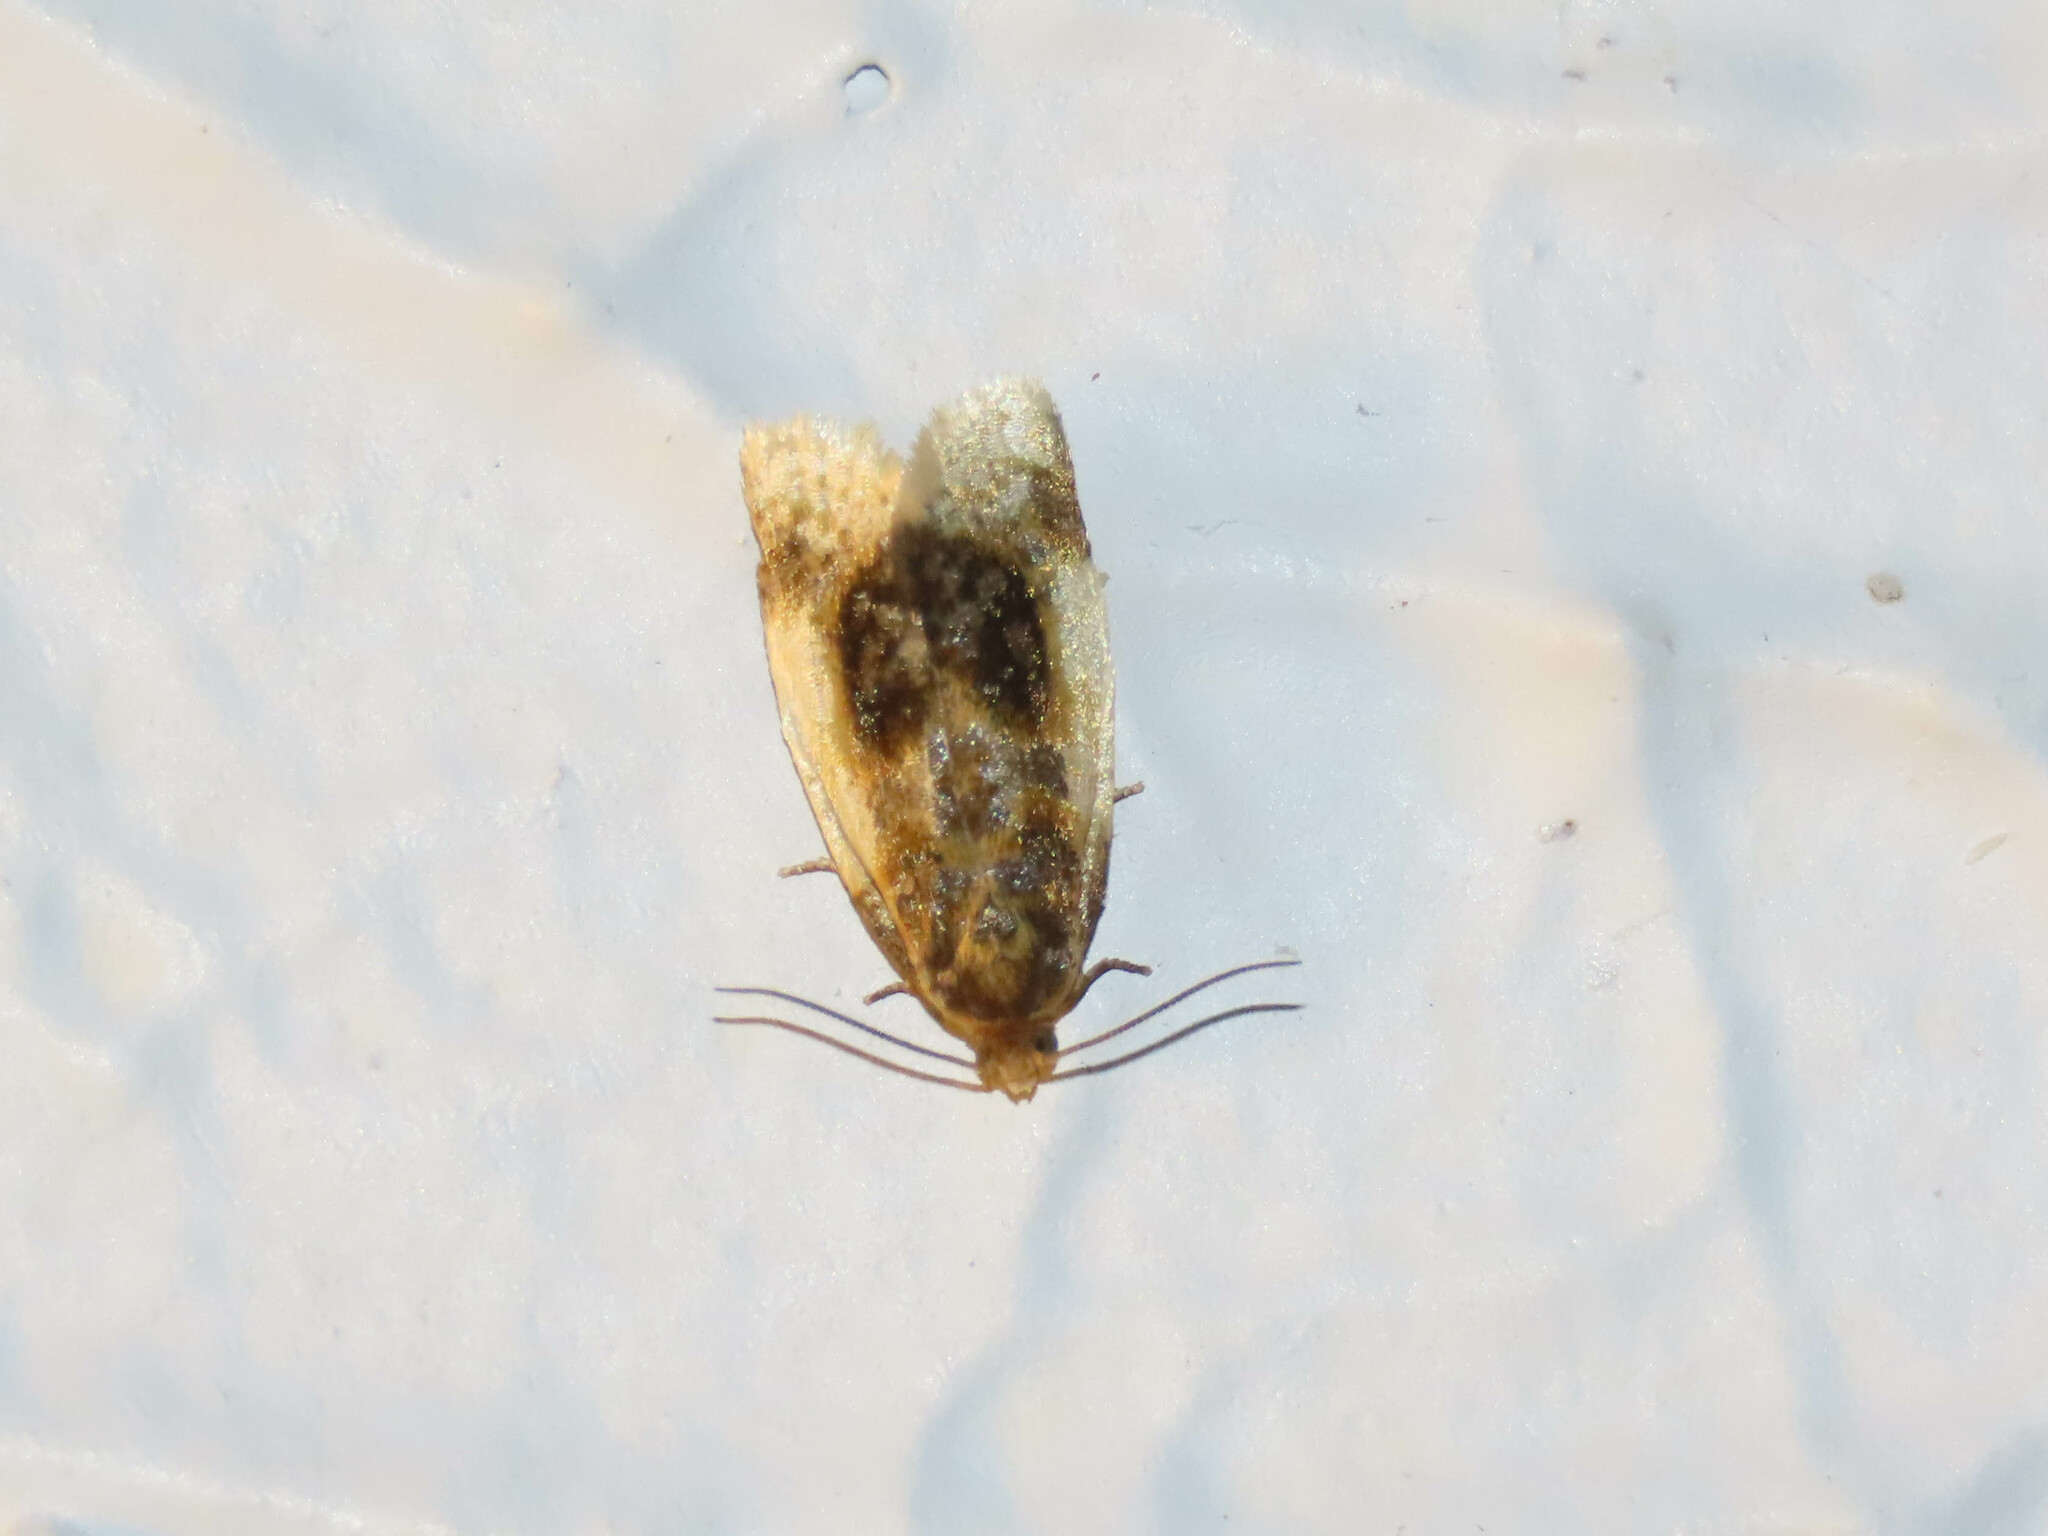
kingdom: Animalia
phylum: Arthropoda
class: Insecta
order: Lepidoptera
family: Tortricidae
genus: Clepsis
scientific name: Clepsis melaleucanus
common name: American apple tortrix
